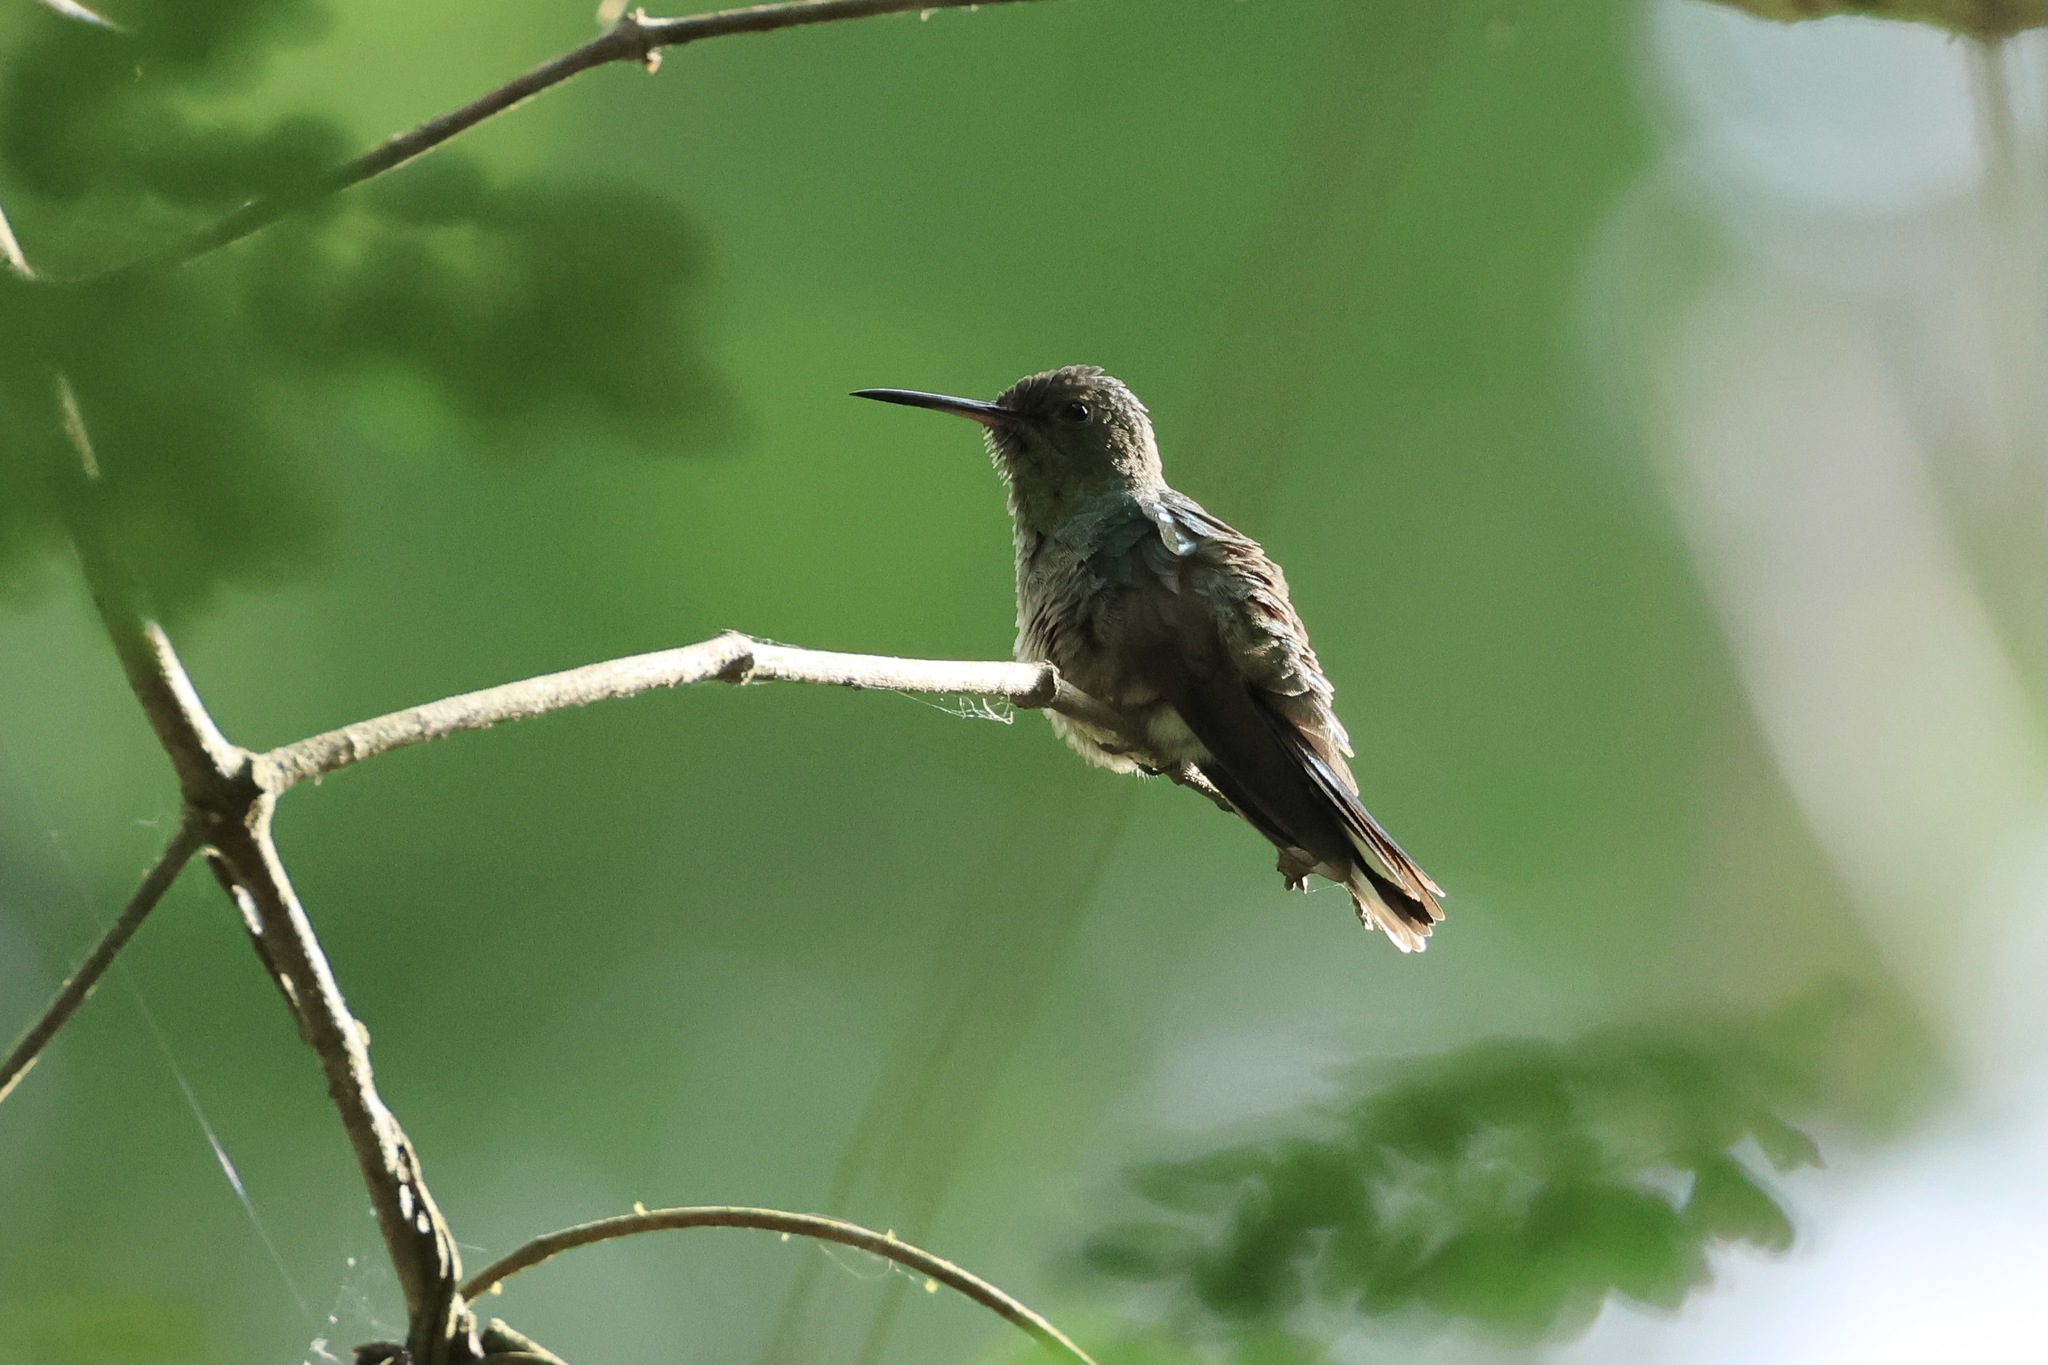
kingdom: Animalia
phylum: Chordata
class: Aves
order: Apodiformes
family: Trochilidae
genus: Phaeochroa
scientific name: Phaeochroa cuvierii
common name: Scaly-breasted hummingbird
